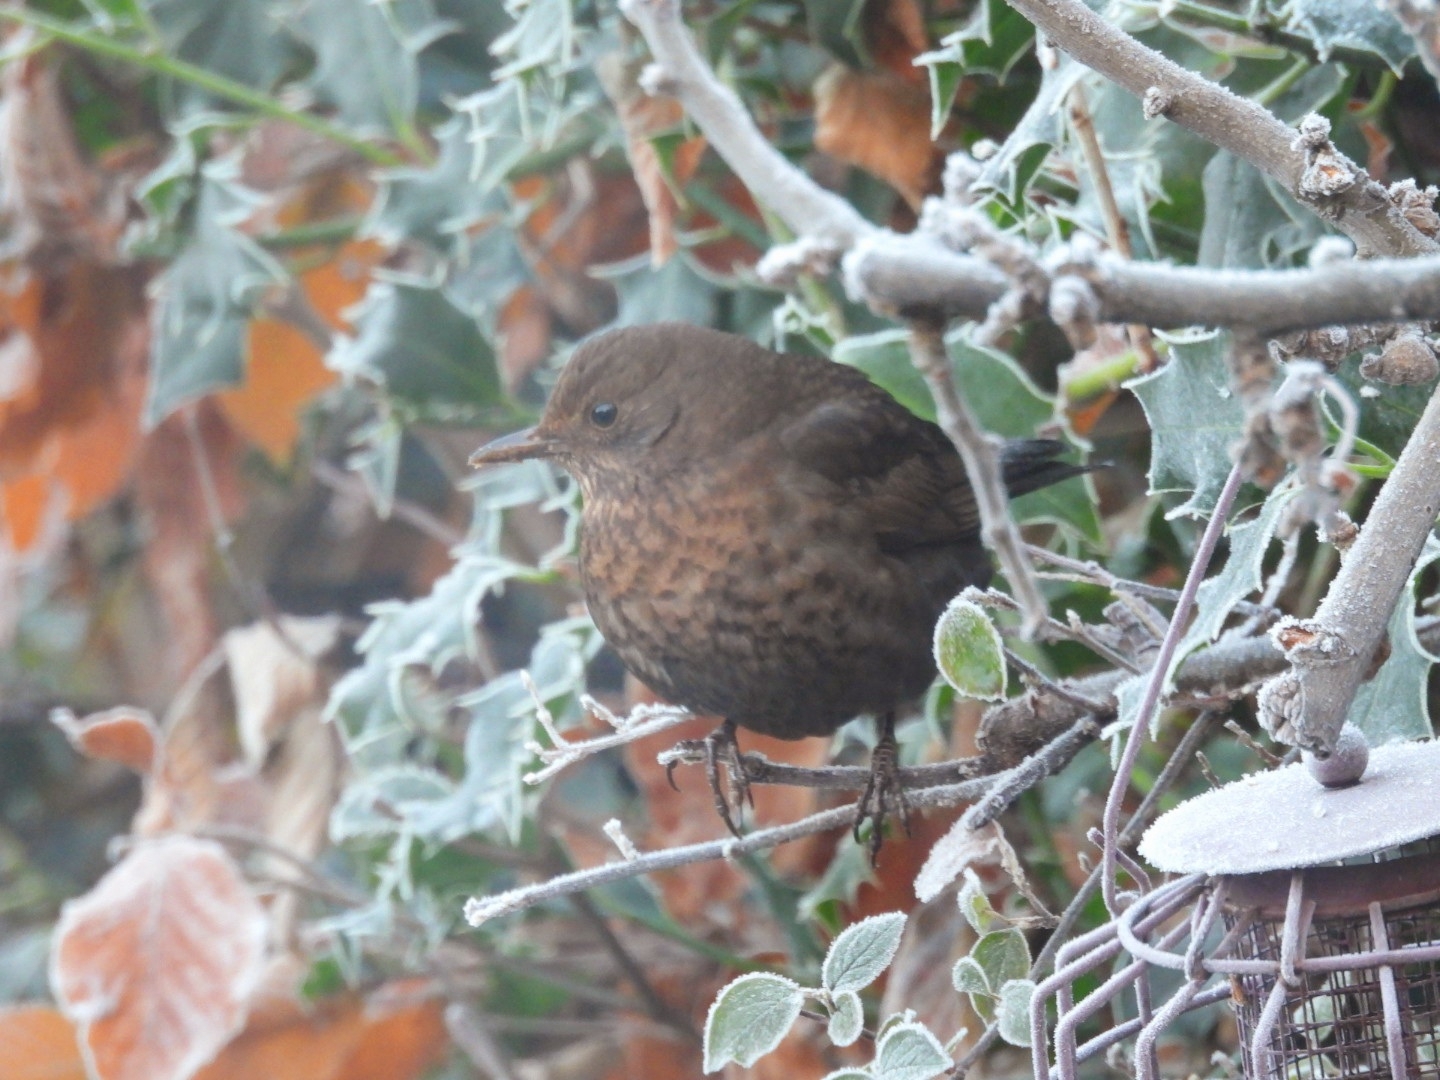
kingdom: Animalia
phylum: Chordata
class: Aves
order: Passeriformes
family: Turdidae
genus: Turdus
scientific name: Turdus merula
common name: Common blackbird
